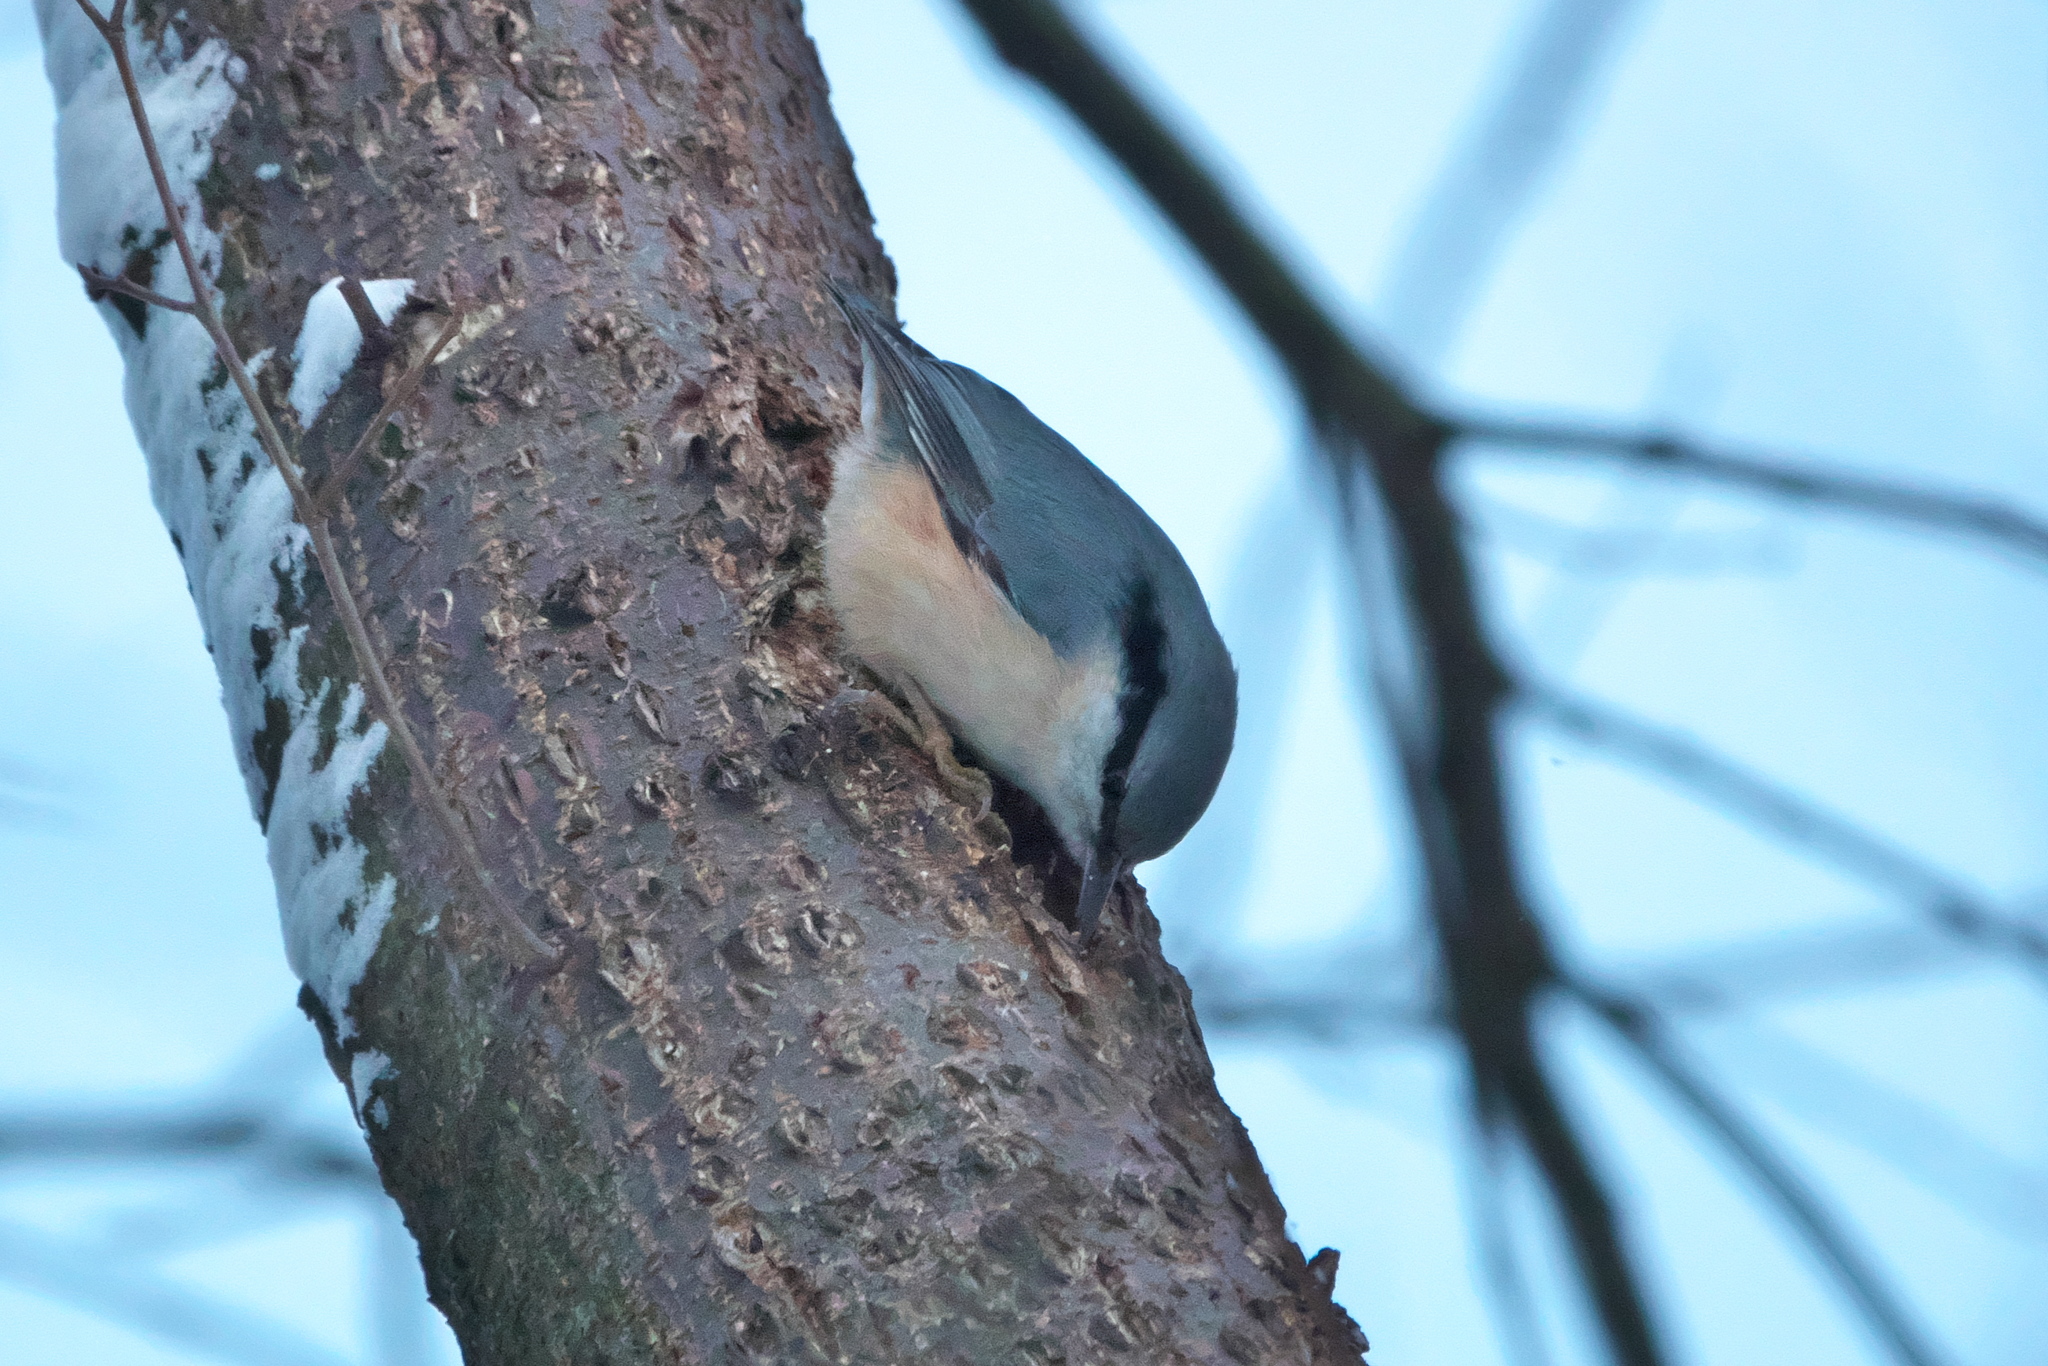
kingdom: Animalia
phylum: Chordata
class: Aves
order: Passeriformes
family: Sittidae
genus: Sitta
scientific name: Sitta europaea
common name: Eurasian nuthatch
